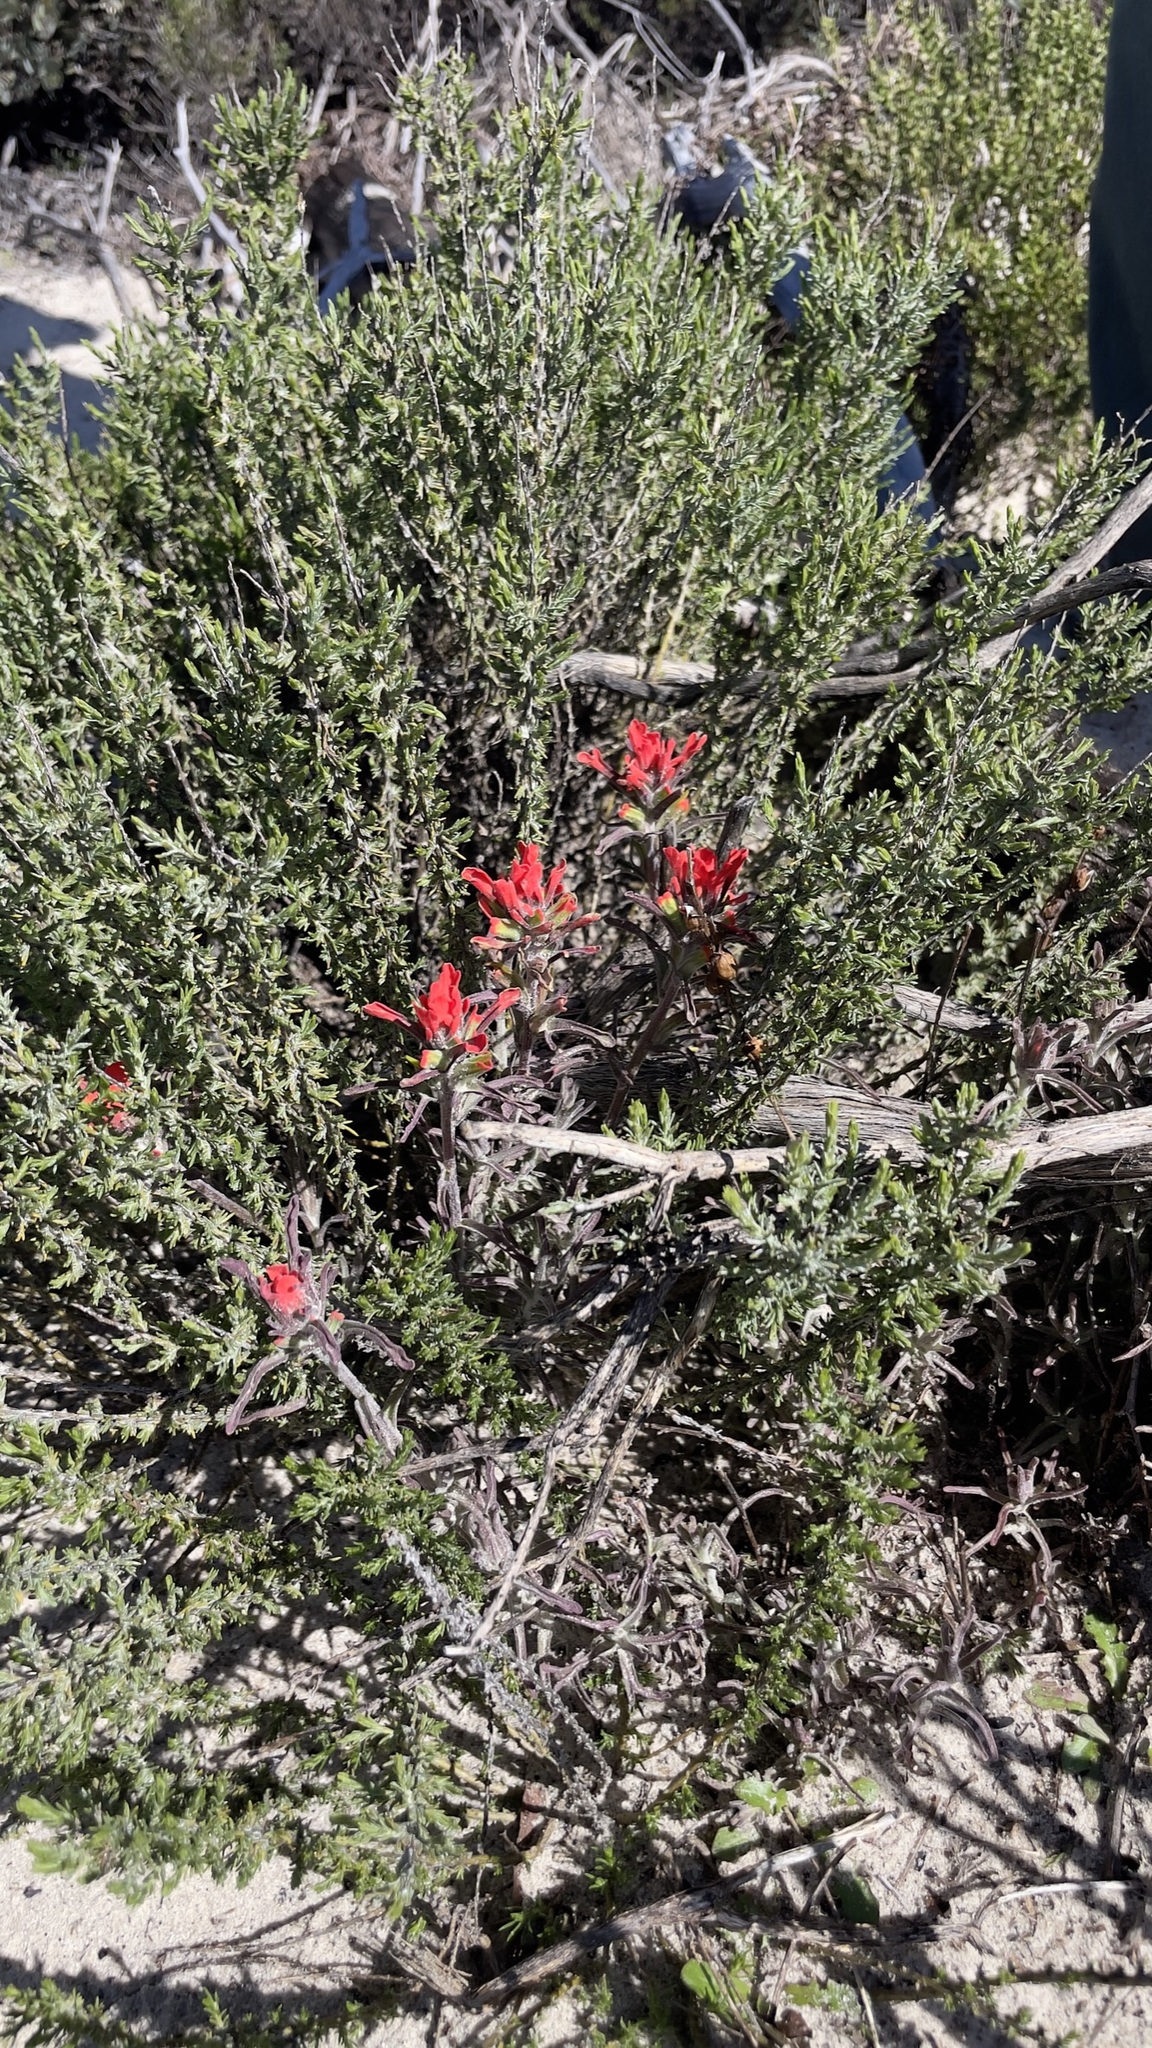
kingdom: Plantae
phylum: Tracheophyta
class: Magnoliopsida
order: Lamiales
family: Orobanchaceae
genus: Castilleja
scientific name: Castilleja foliolosa
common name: Woolly indian paintbrush
